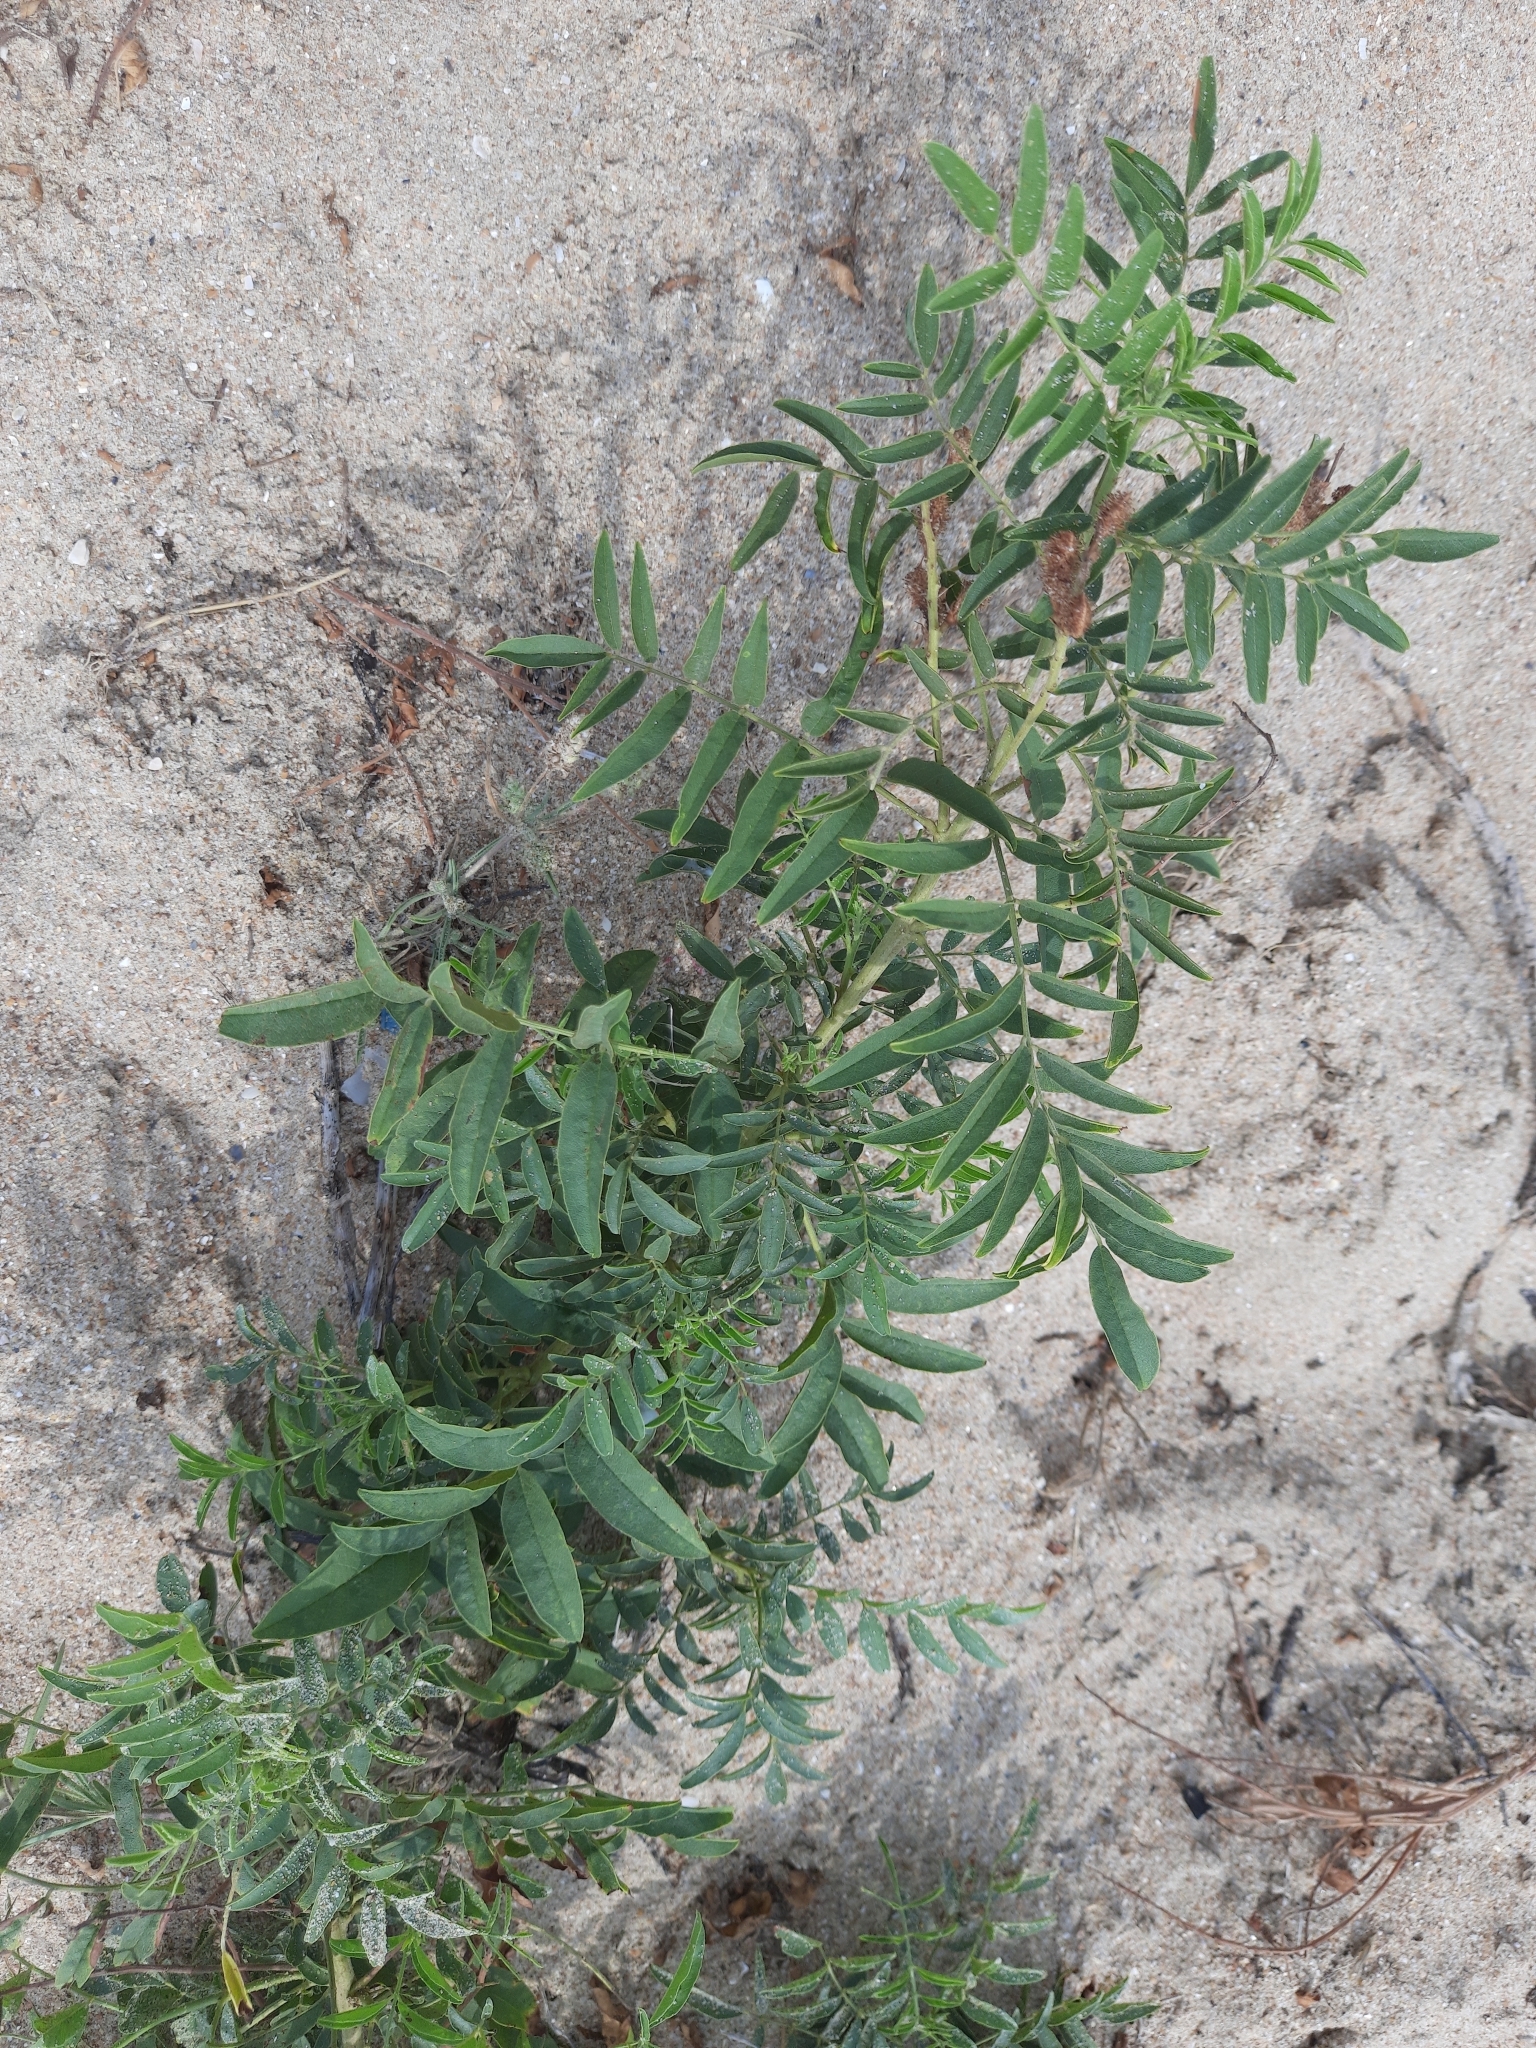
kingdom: Plantae
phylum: Tracheophyta
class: Magnoliopsida
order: Fabales
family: Fabaceae
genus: Glycyrrhiza
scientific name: Glycyrrhiza glabra
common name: Liquorice
